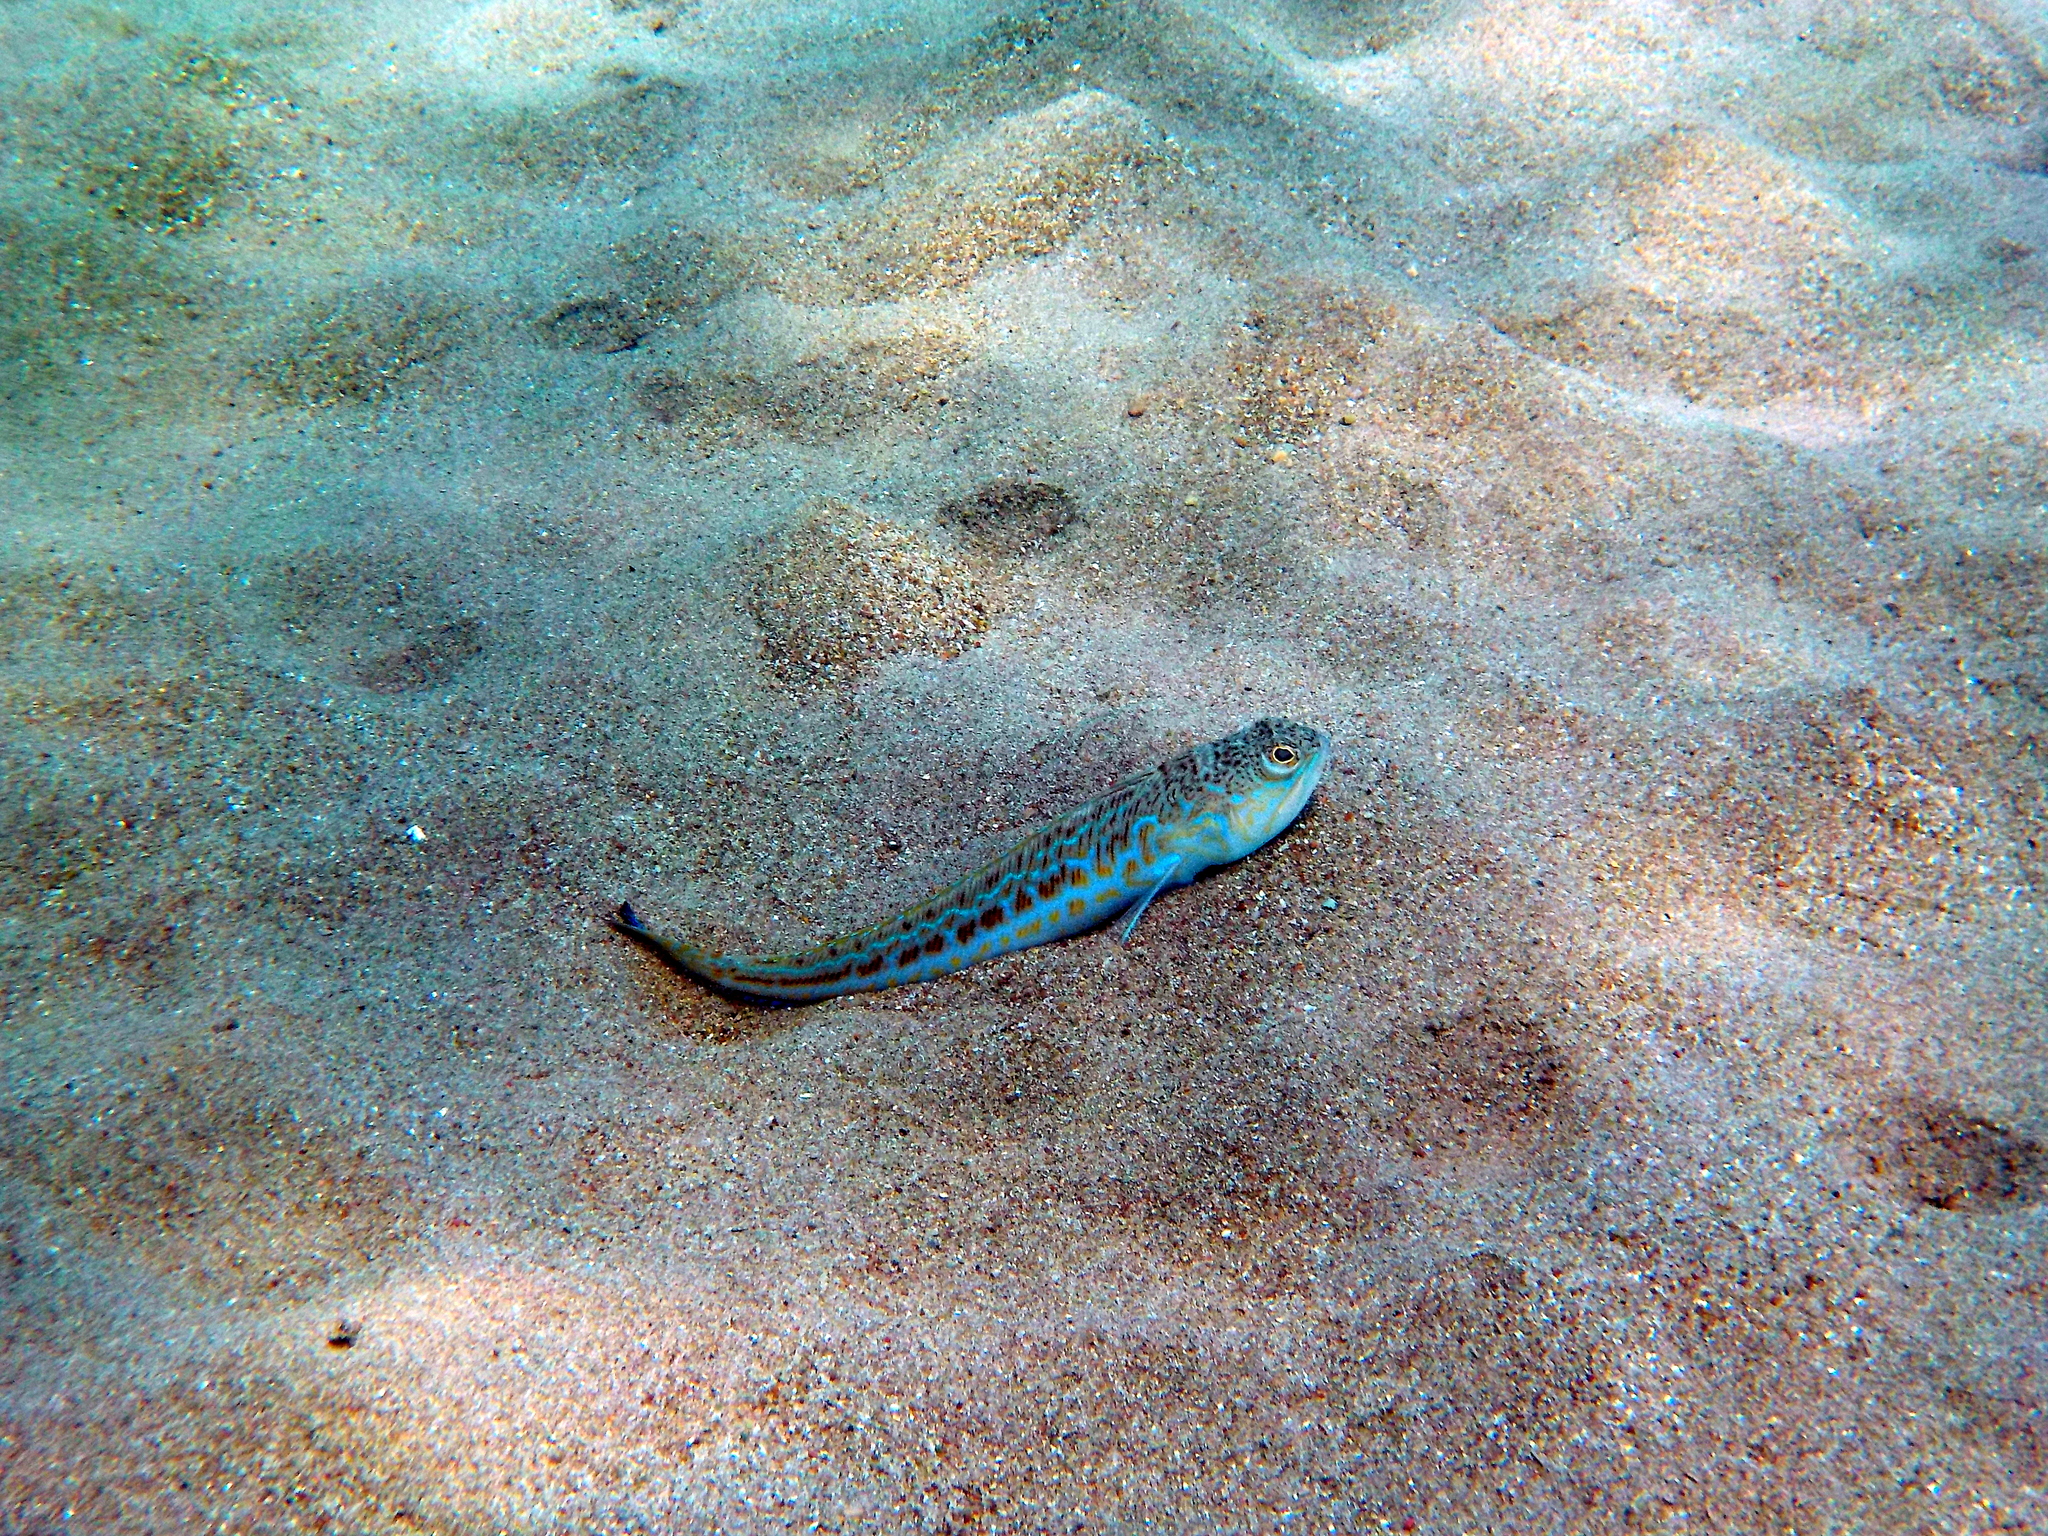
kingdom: Animalia
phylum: Chordata
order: Perciformes
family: Trachinidae
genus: Trachinus
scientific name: Trachinus draco
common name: Greater weever
